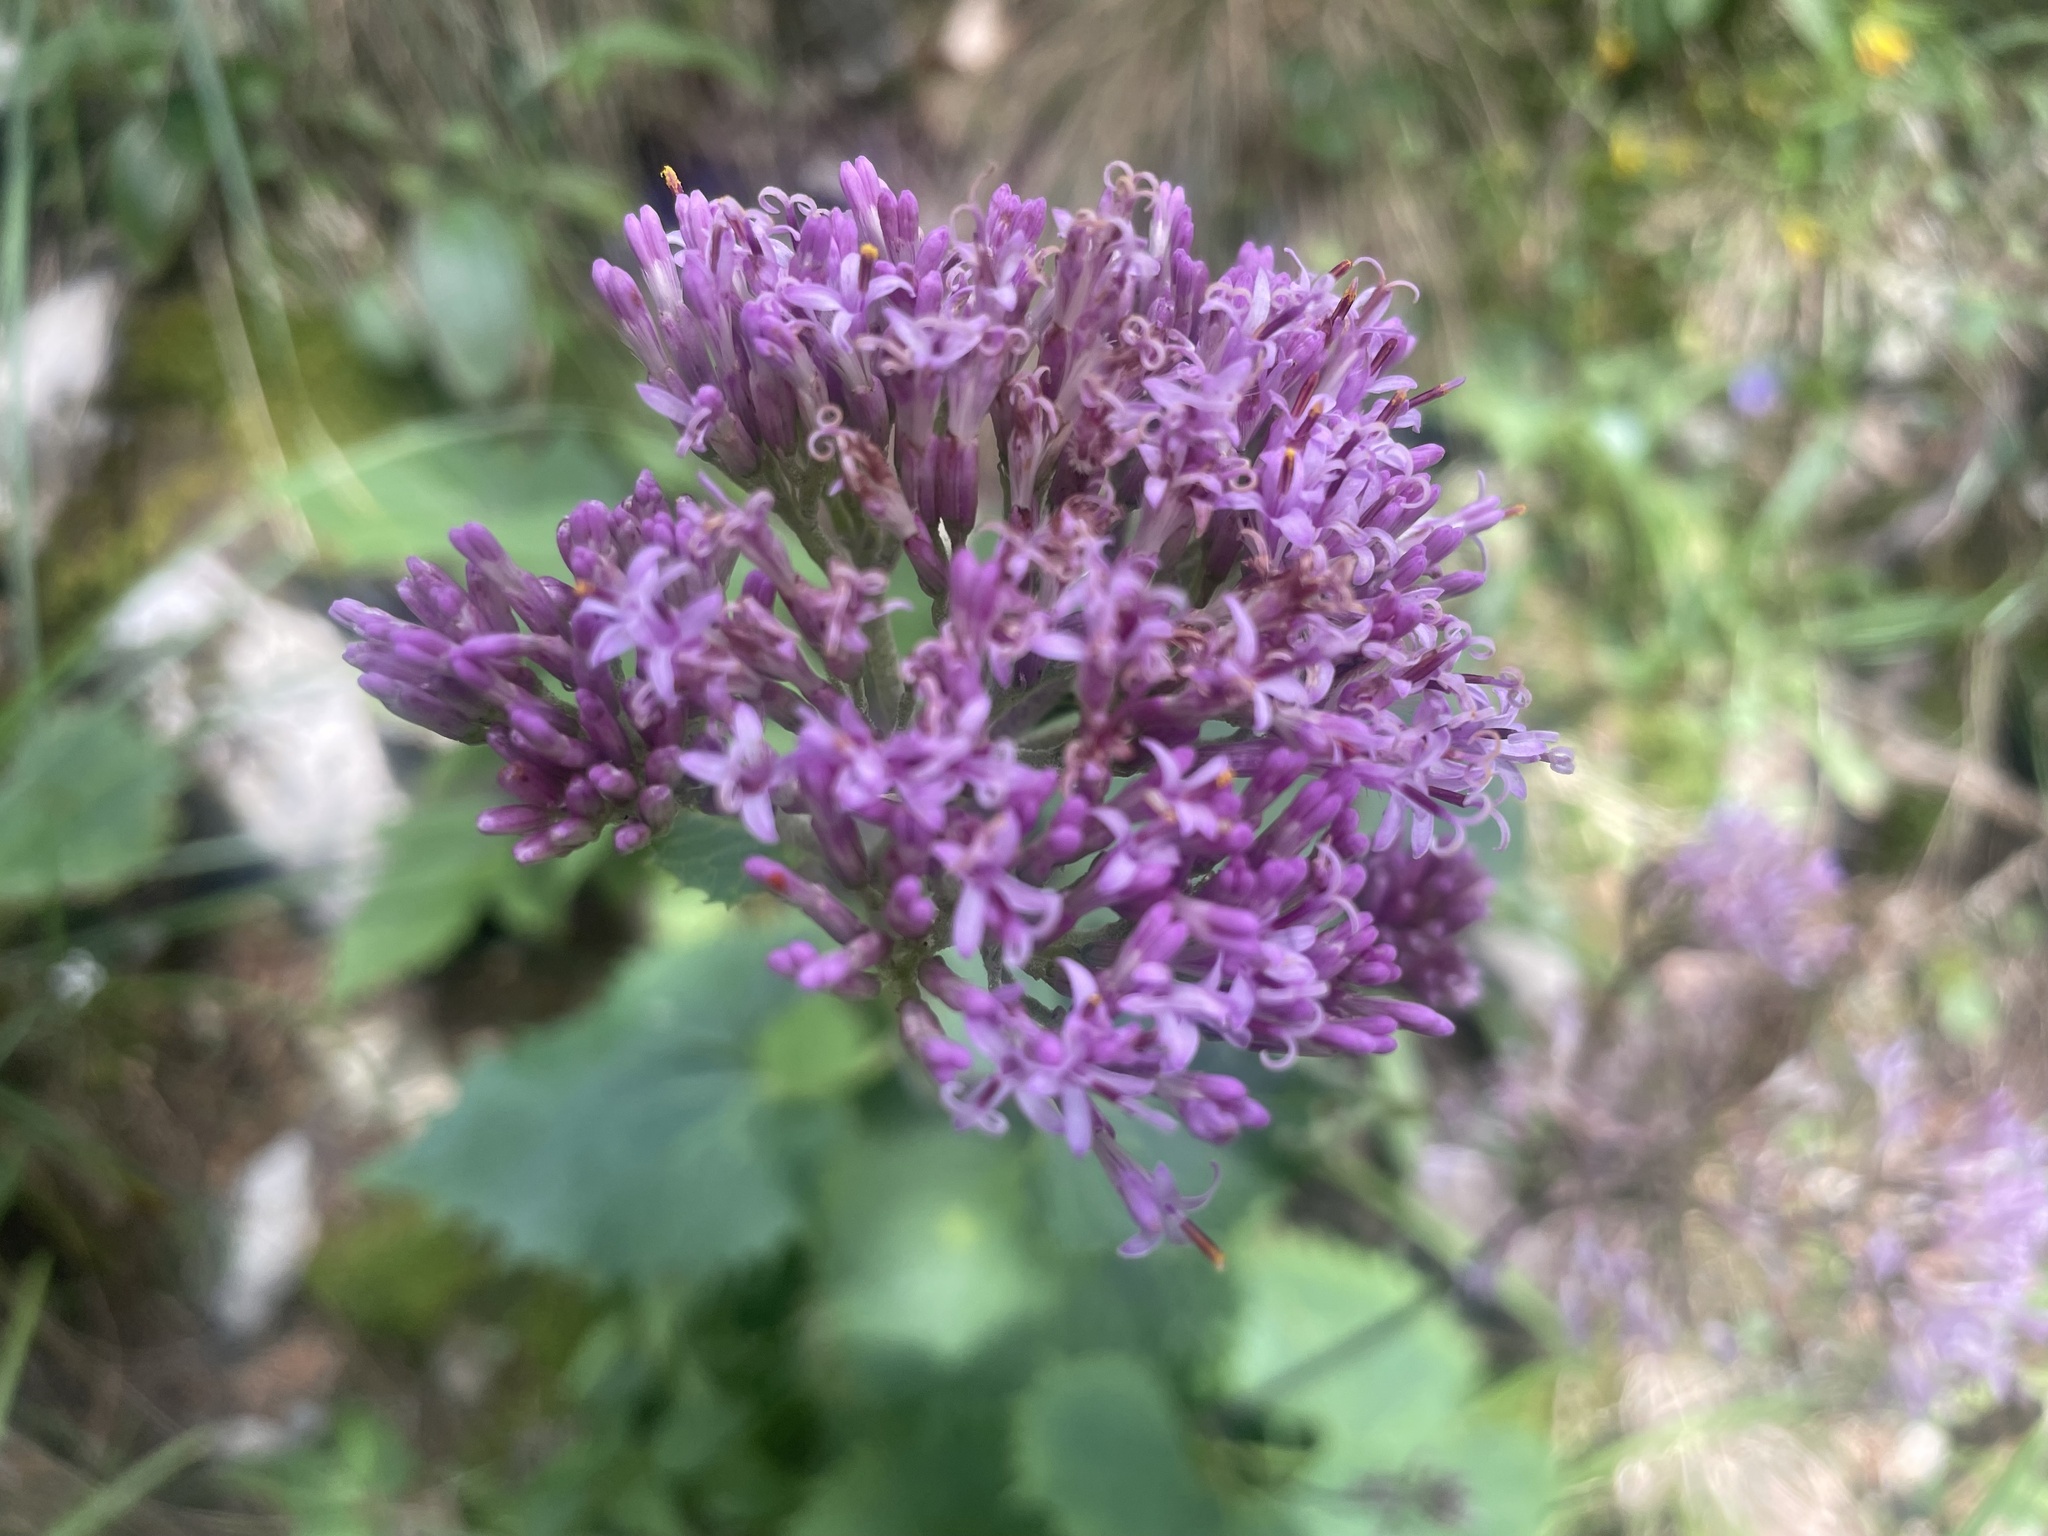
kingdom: Plantae
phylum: Tracheophyta
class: Magnoliopsida
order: Asterales
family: Asteraceae
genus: Adenostyles
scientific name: Adenostyles alpina
